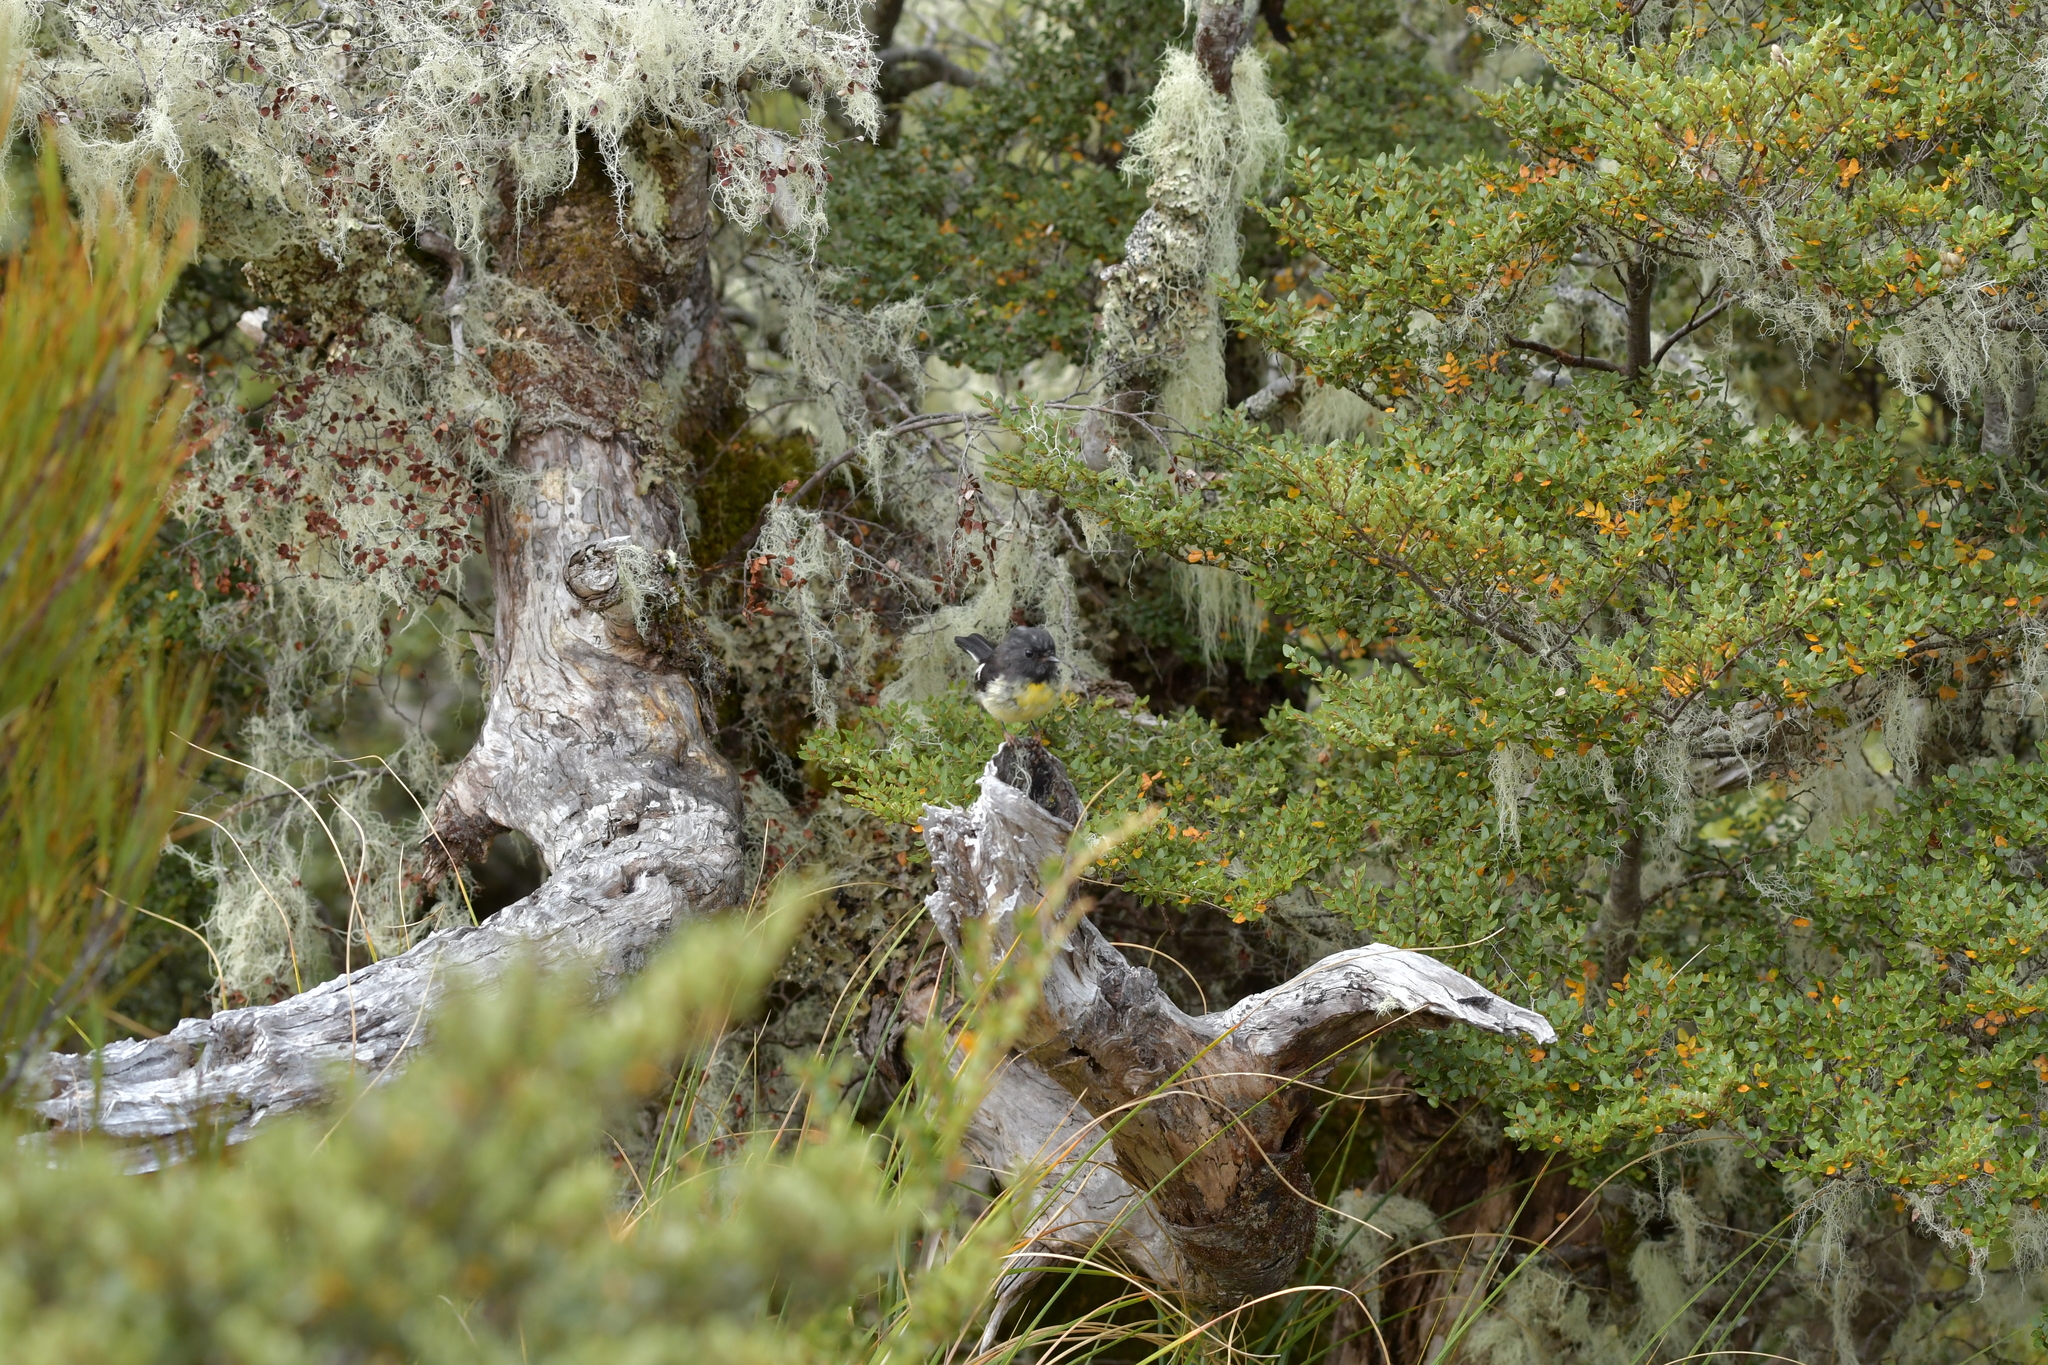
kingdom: Animalia
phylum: Chordata
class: Aves
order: Passeriformes
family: Petroicidae
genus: Petroica
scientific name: Petroica macrocephala
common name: Tomtit
